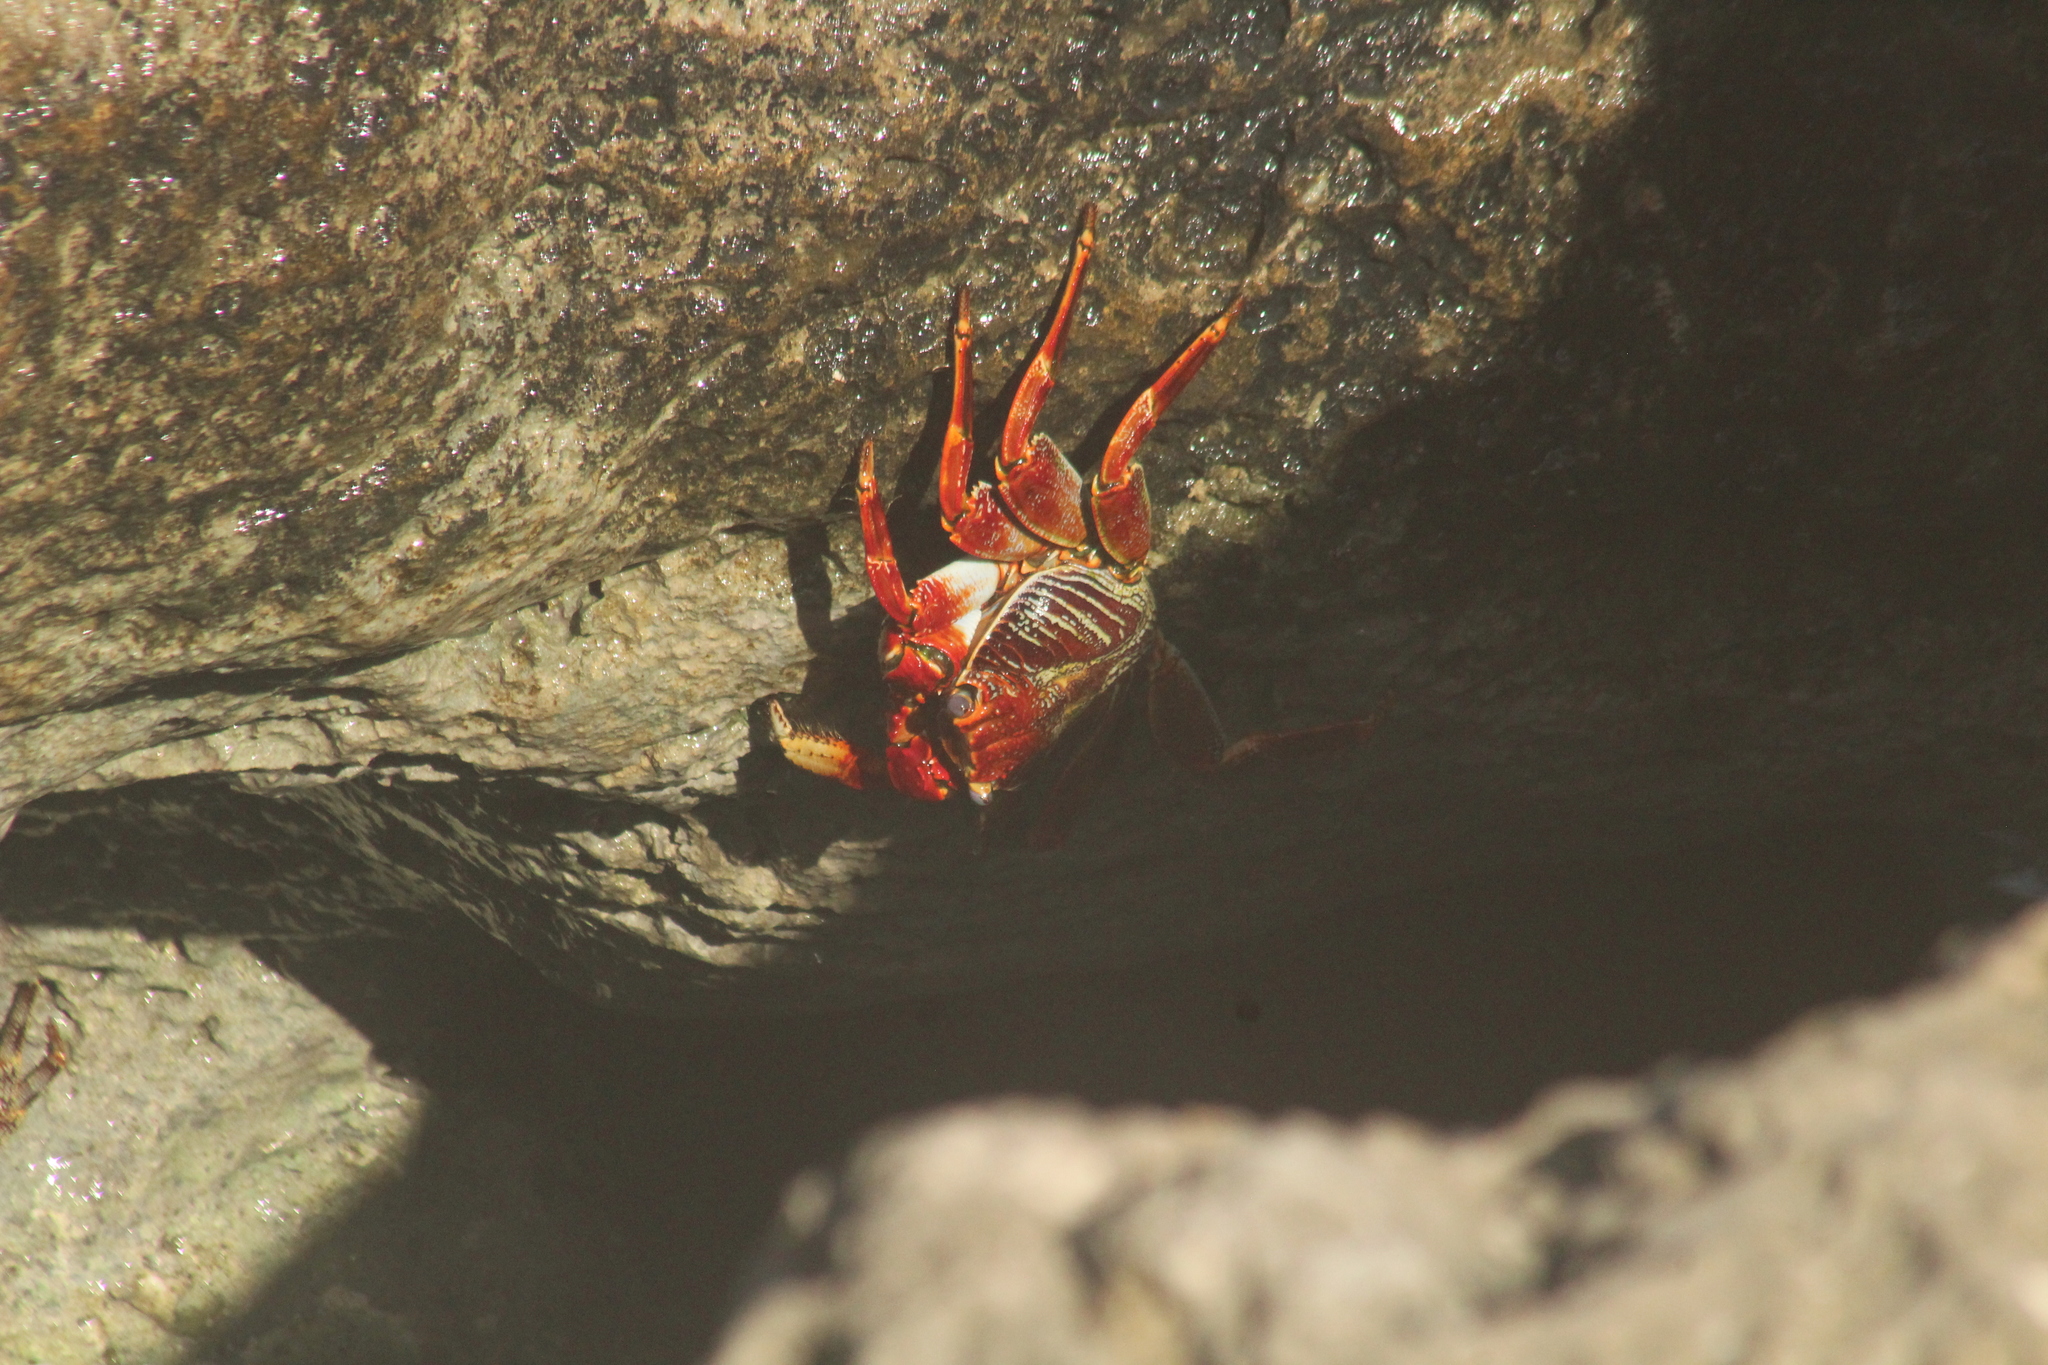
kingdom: Animalia
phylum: Arthropoda
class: Malacostraca
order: Decapoda
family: Grapsidae
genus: Grapsus
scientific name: Grapsus grapsus
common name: Sally lightfoot
